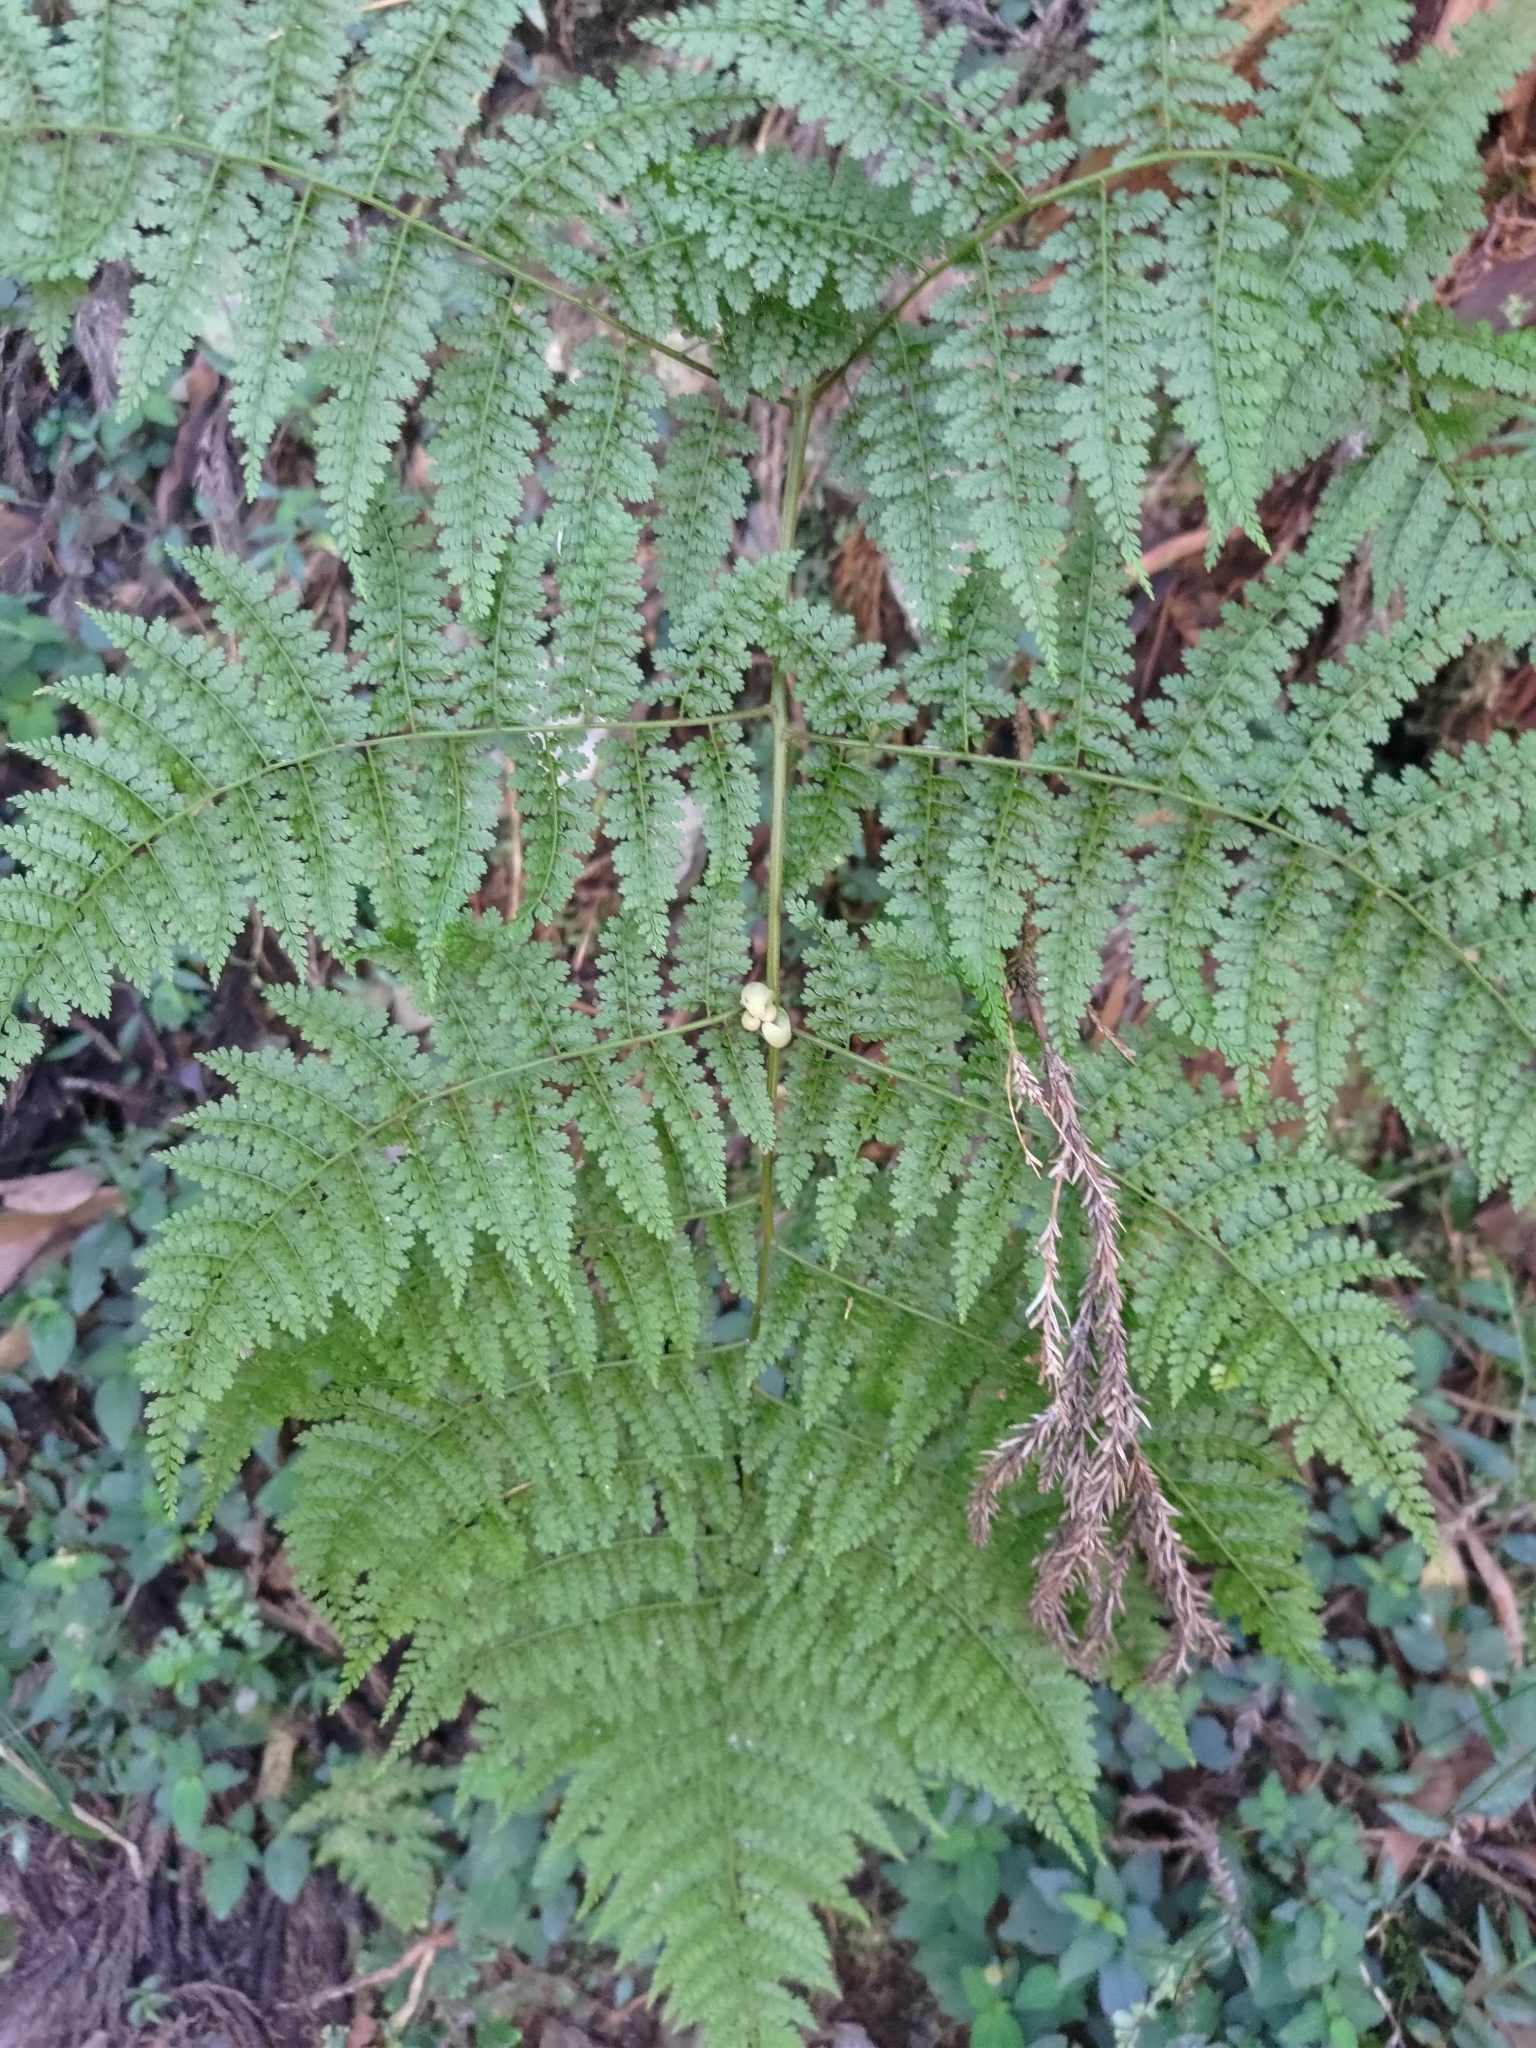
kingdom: Plantae
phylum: Tracheophyta
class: Polypodiopsida
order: Polypodiales
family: Dennstaedtiaceae
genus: Monachosorum
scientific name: Monachosorum henryi
